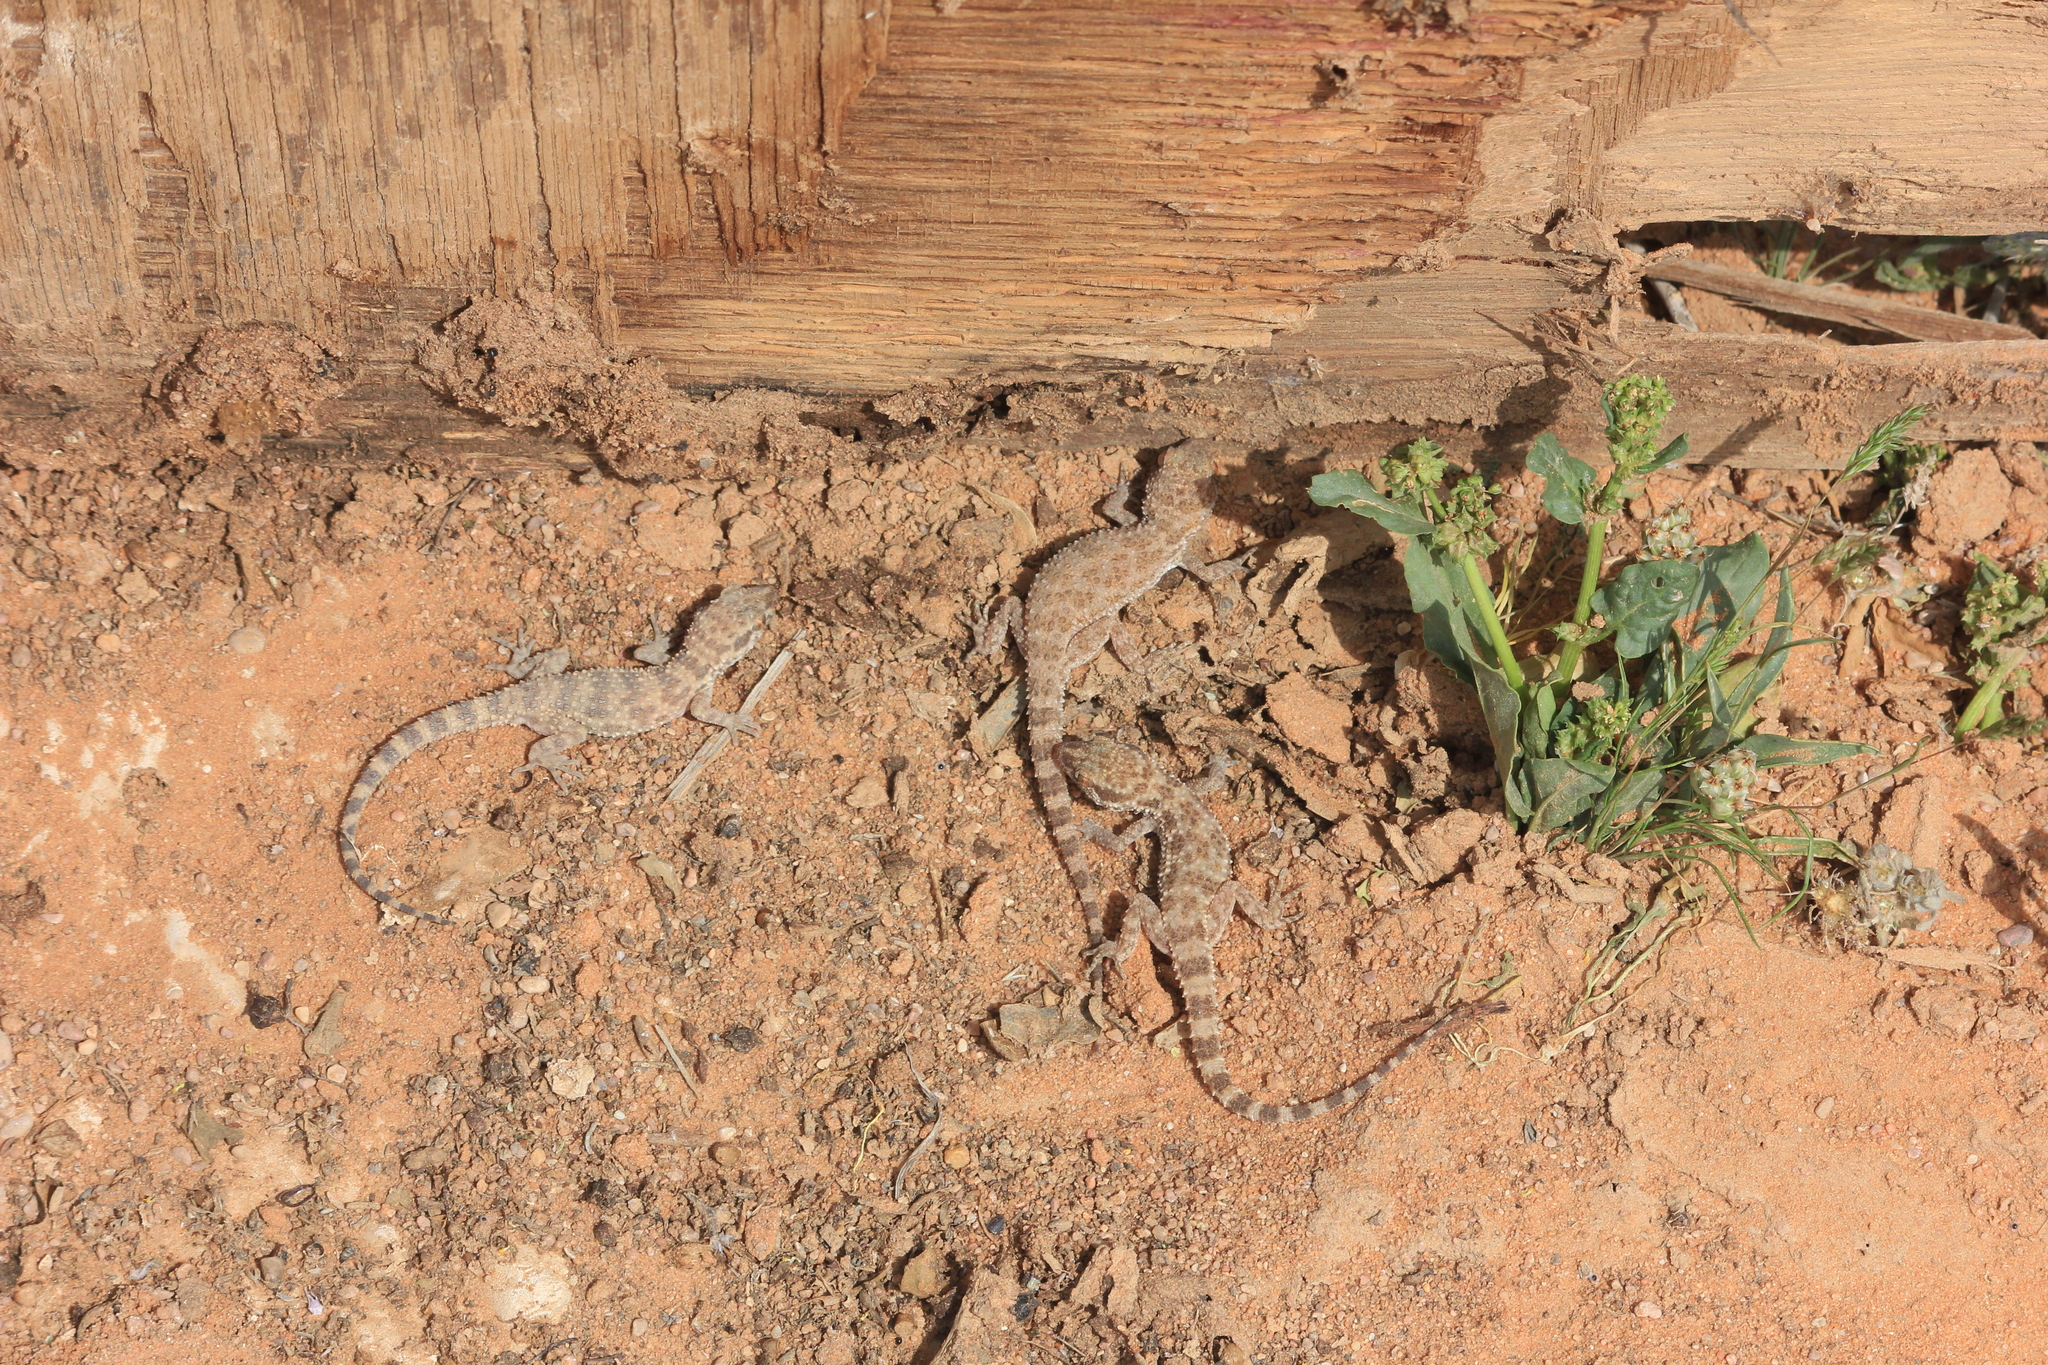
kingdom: Animalia
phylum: Chordata
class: Squamata
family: Gekkonidae
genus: Bunopus
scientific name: Bunopus tuberculatus
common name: Southern tuberculated gecko
